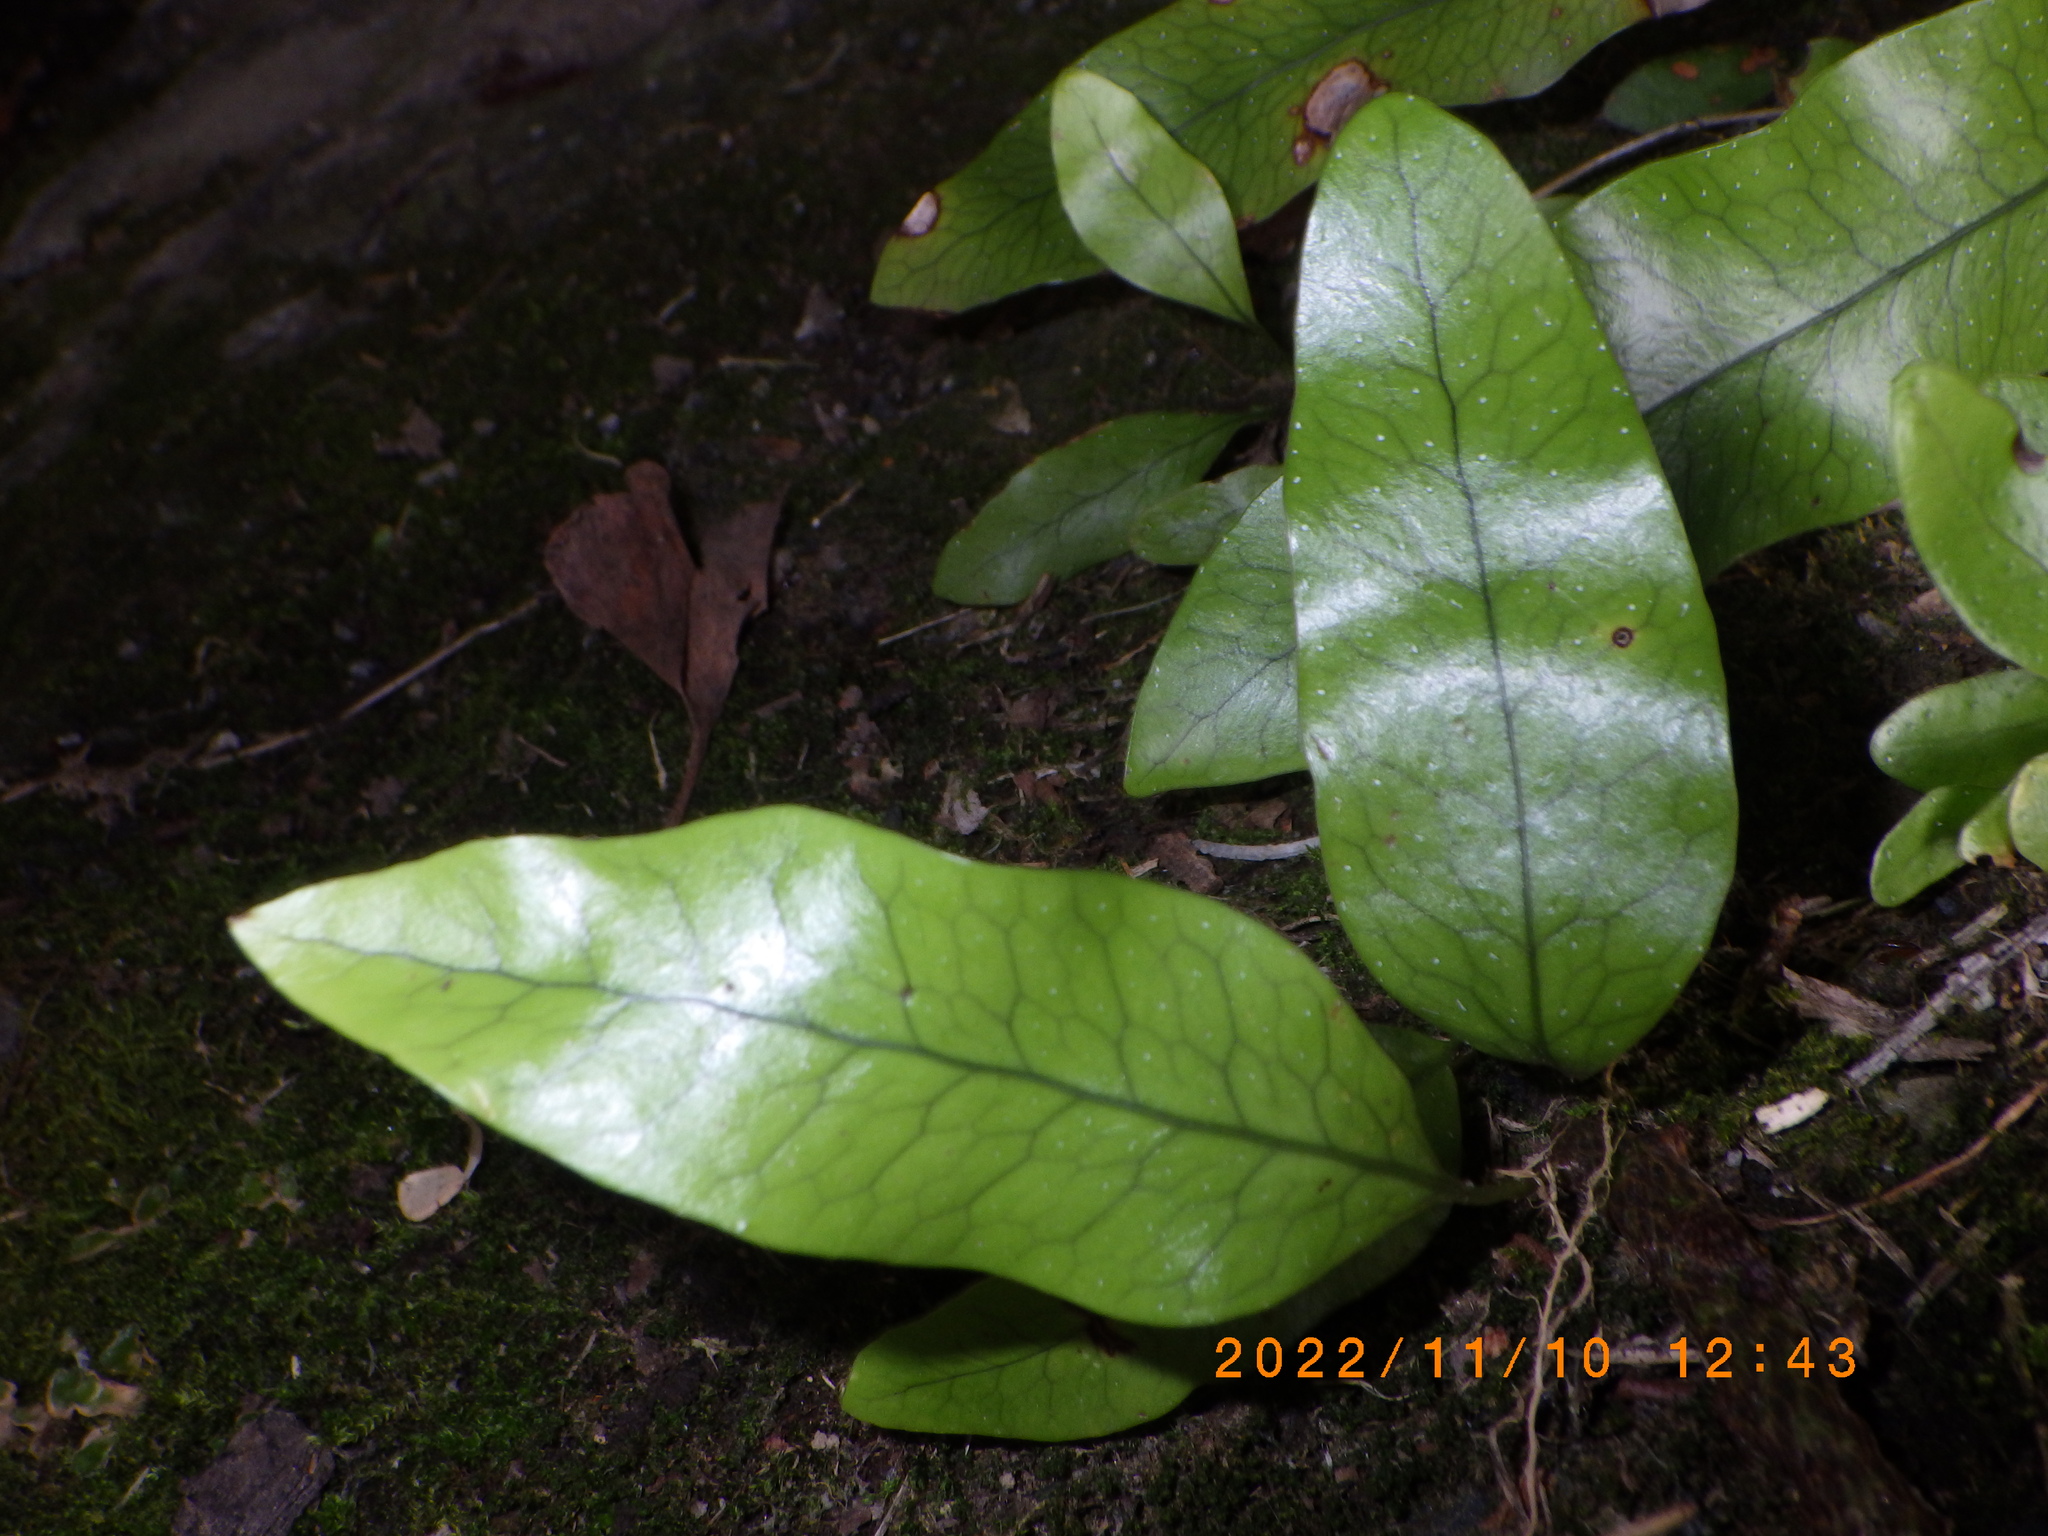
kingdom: Plantae
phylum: Tracheophyta
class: Polypodiopsida
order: Polypodiales
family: Polypodiaceae
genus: Lecanopteris
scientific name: Lecanopteris pustulata
